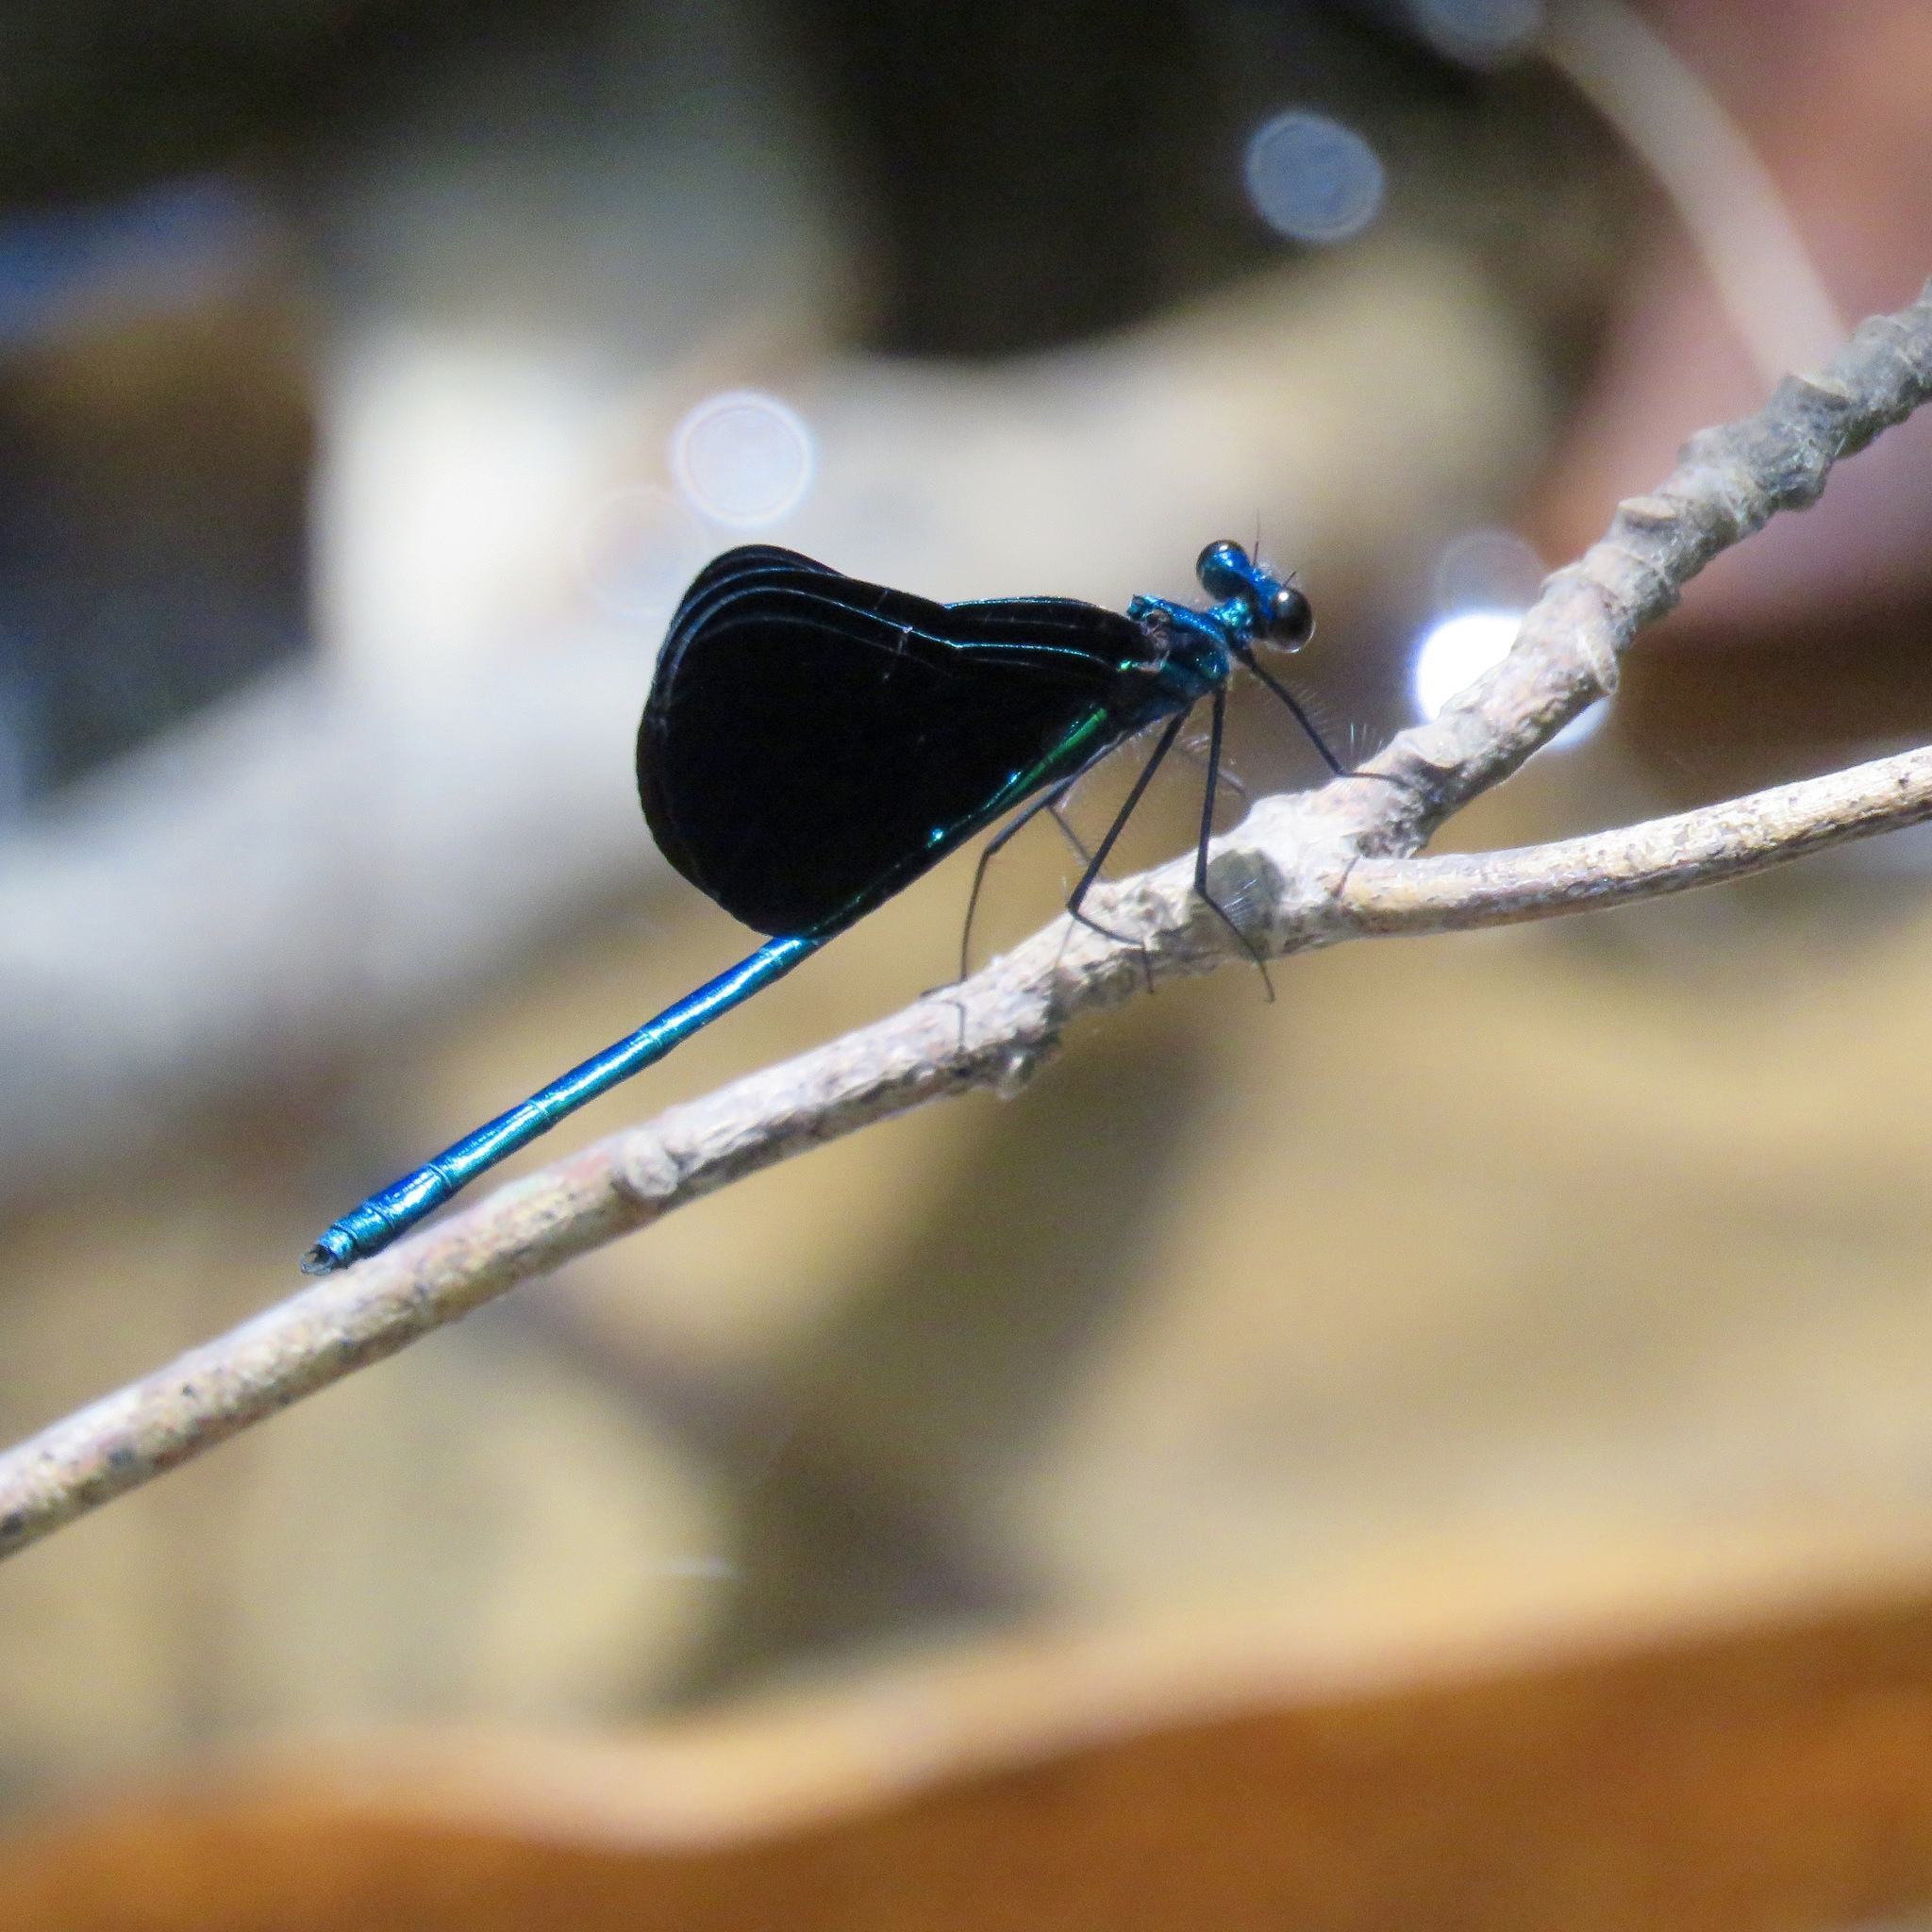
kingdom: Animalia
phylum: Arthropoda
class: Insecta
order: Odonata
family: Calopterygidae
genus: Calopteryx
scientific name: Calopteryx maculata
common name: Ebony jewelwing
